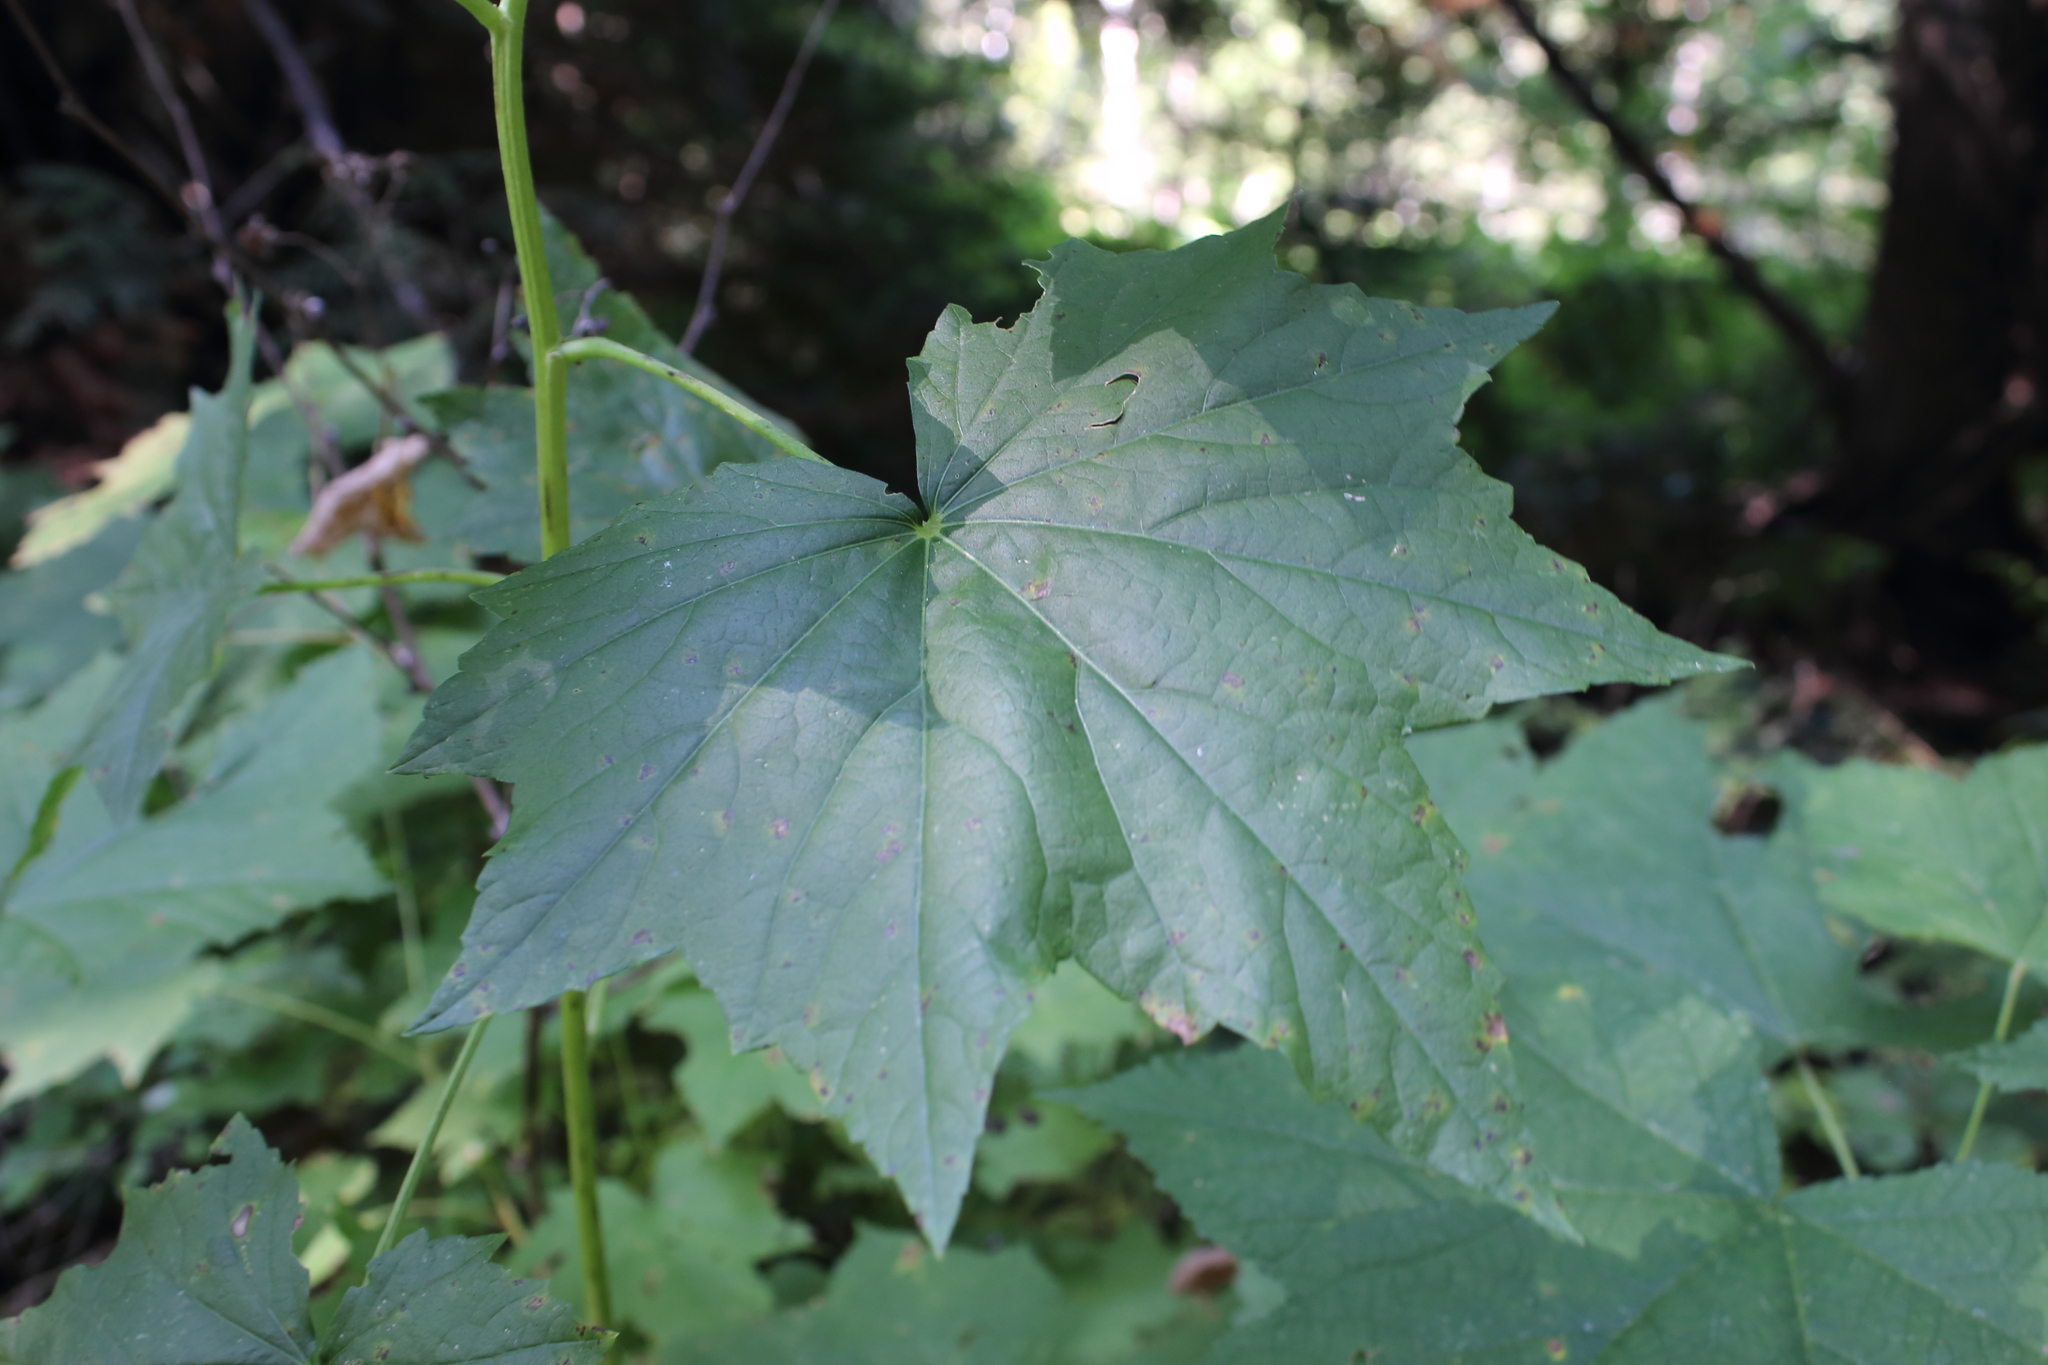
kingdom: Plantae
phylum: Tracheophyta
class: Magnoliopsida
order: Malvales
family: Malvaceae
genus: Iliamna
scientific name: Iliamna rivularis
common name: Wild hollyhock
